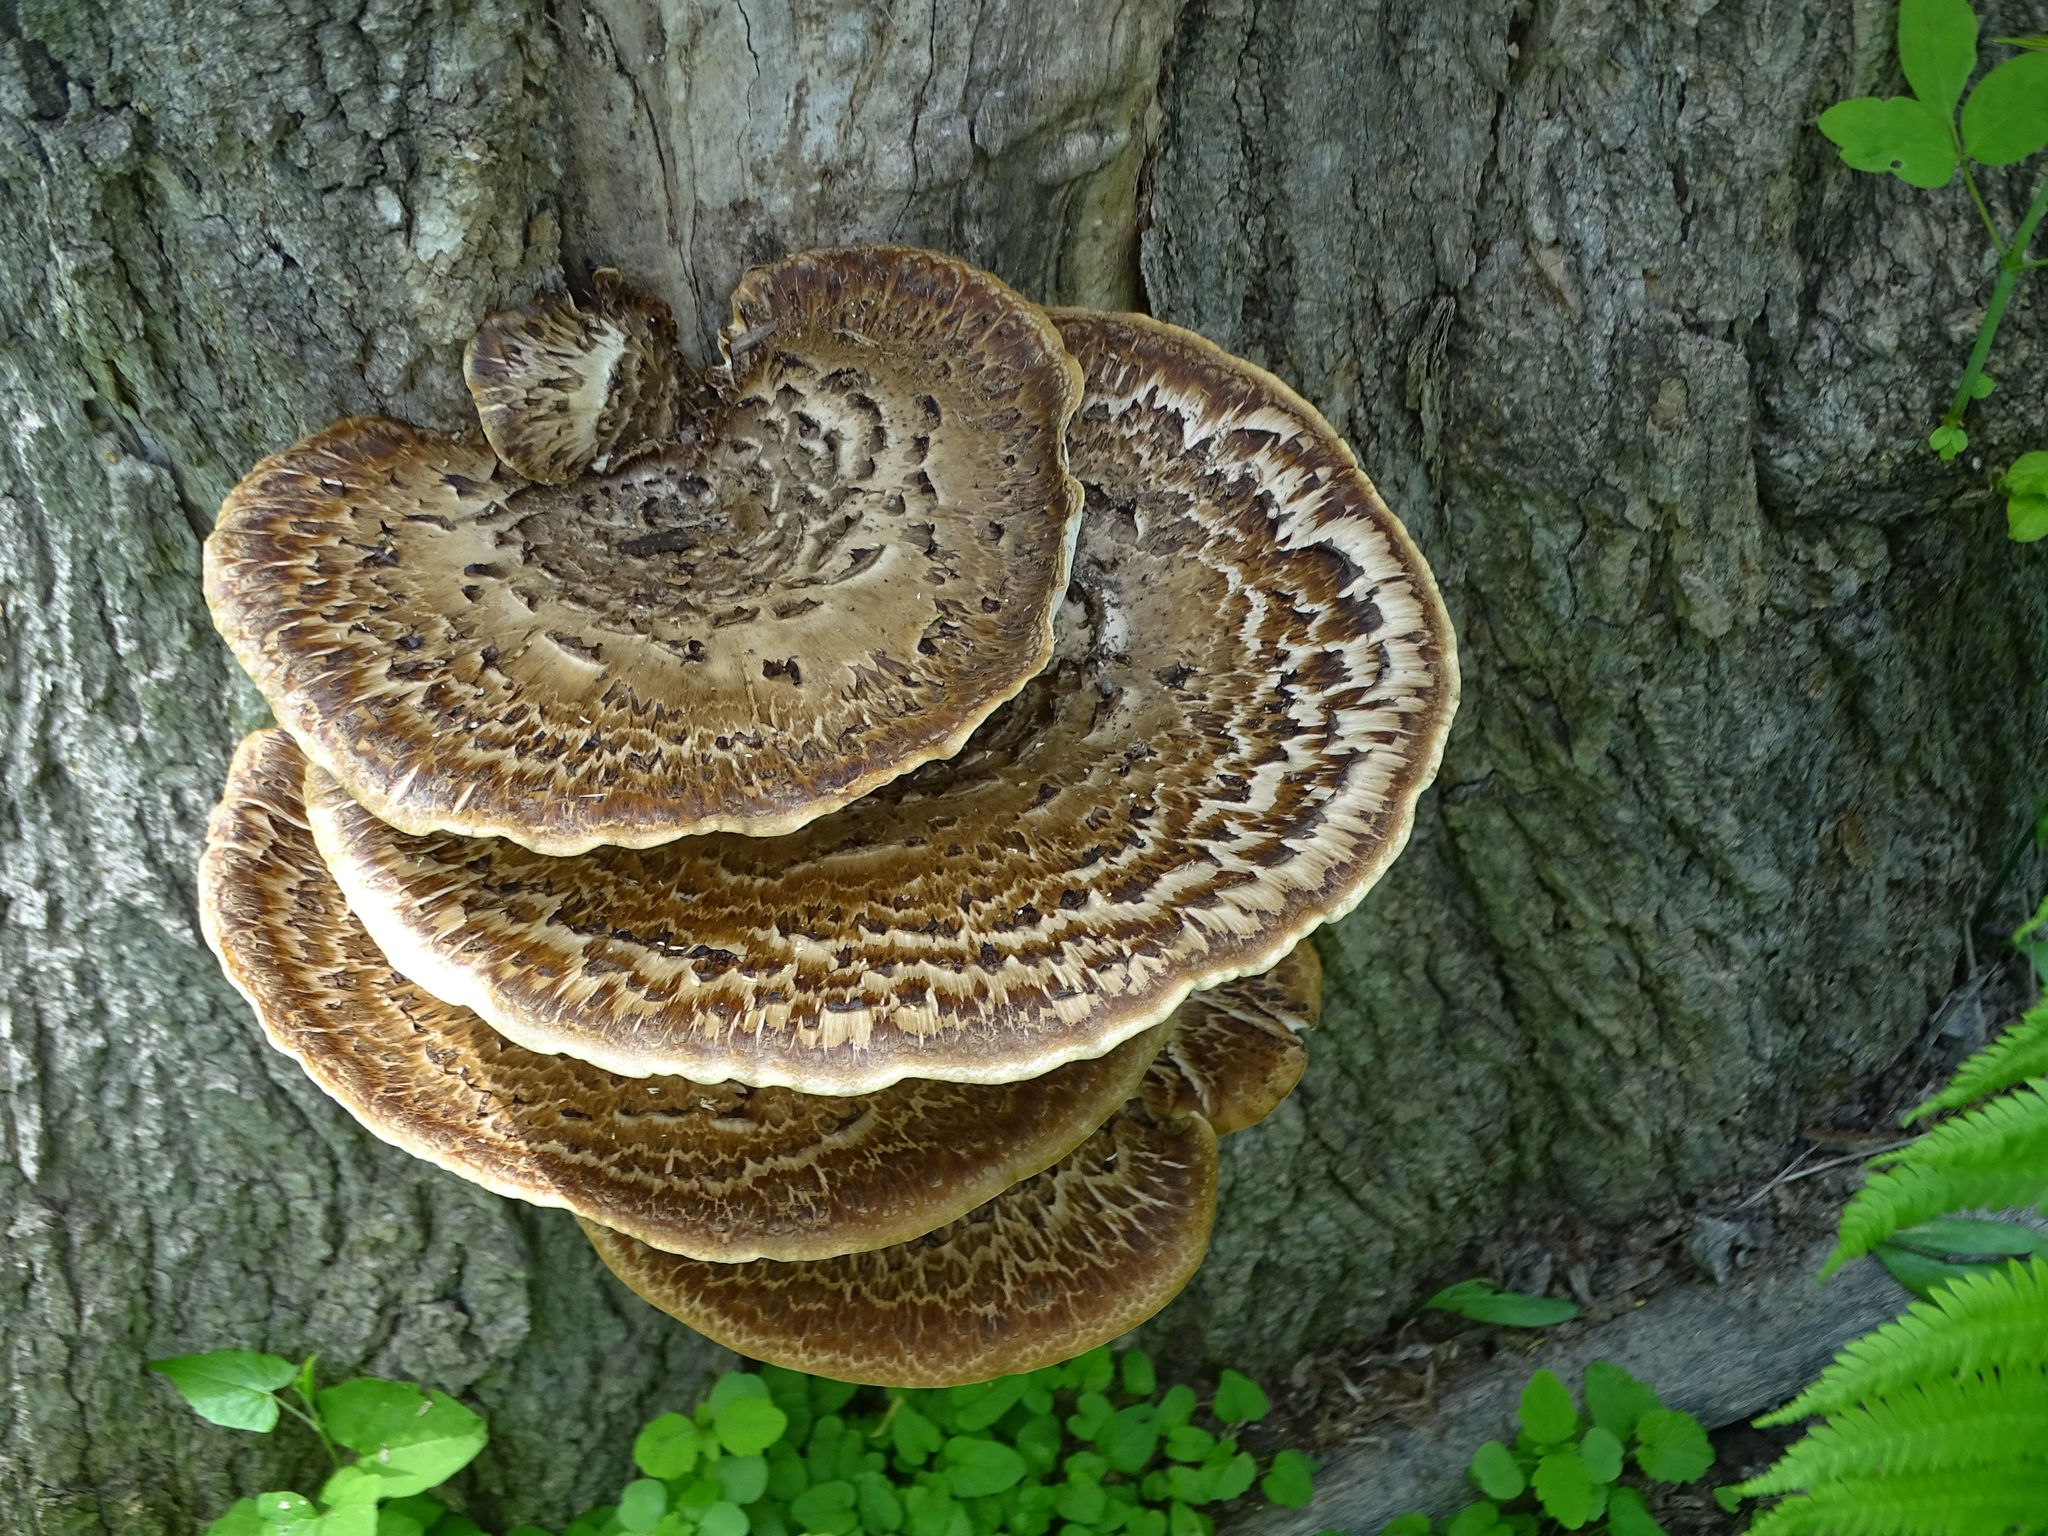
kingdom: Fungi
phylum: Basidiomycota
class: Agaricomycetes
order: Polyporales
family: Polyporaceae
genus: Cerioporus
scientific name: Cerioporus squamosus
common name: Dryad's saddle
